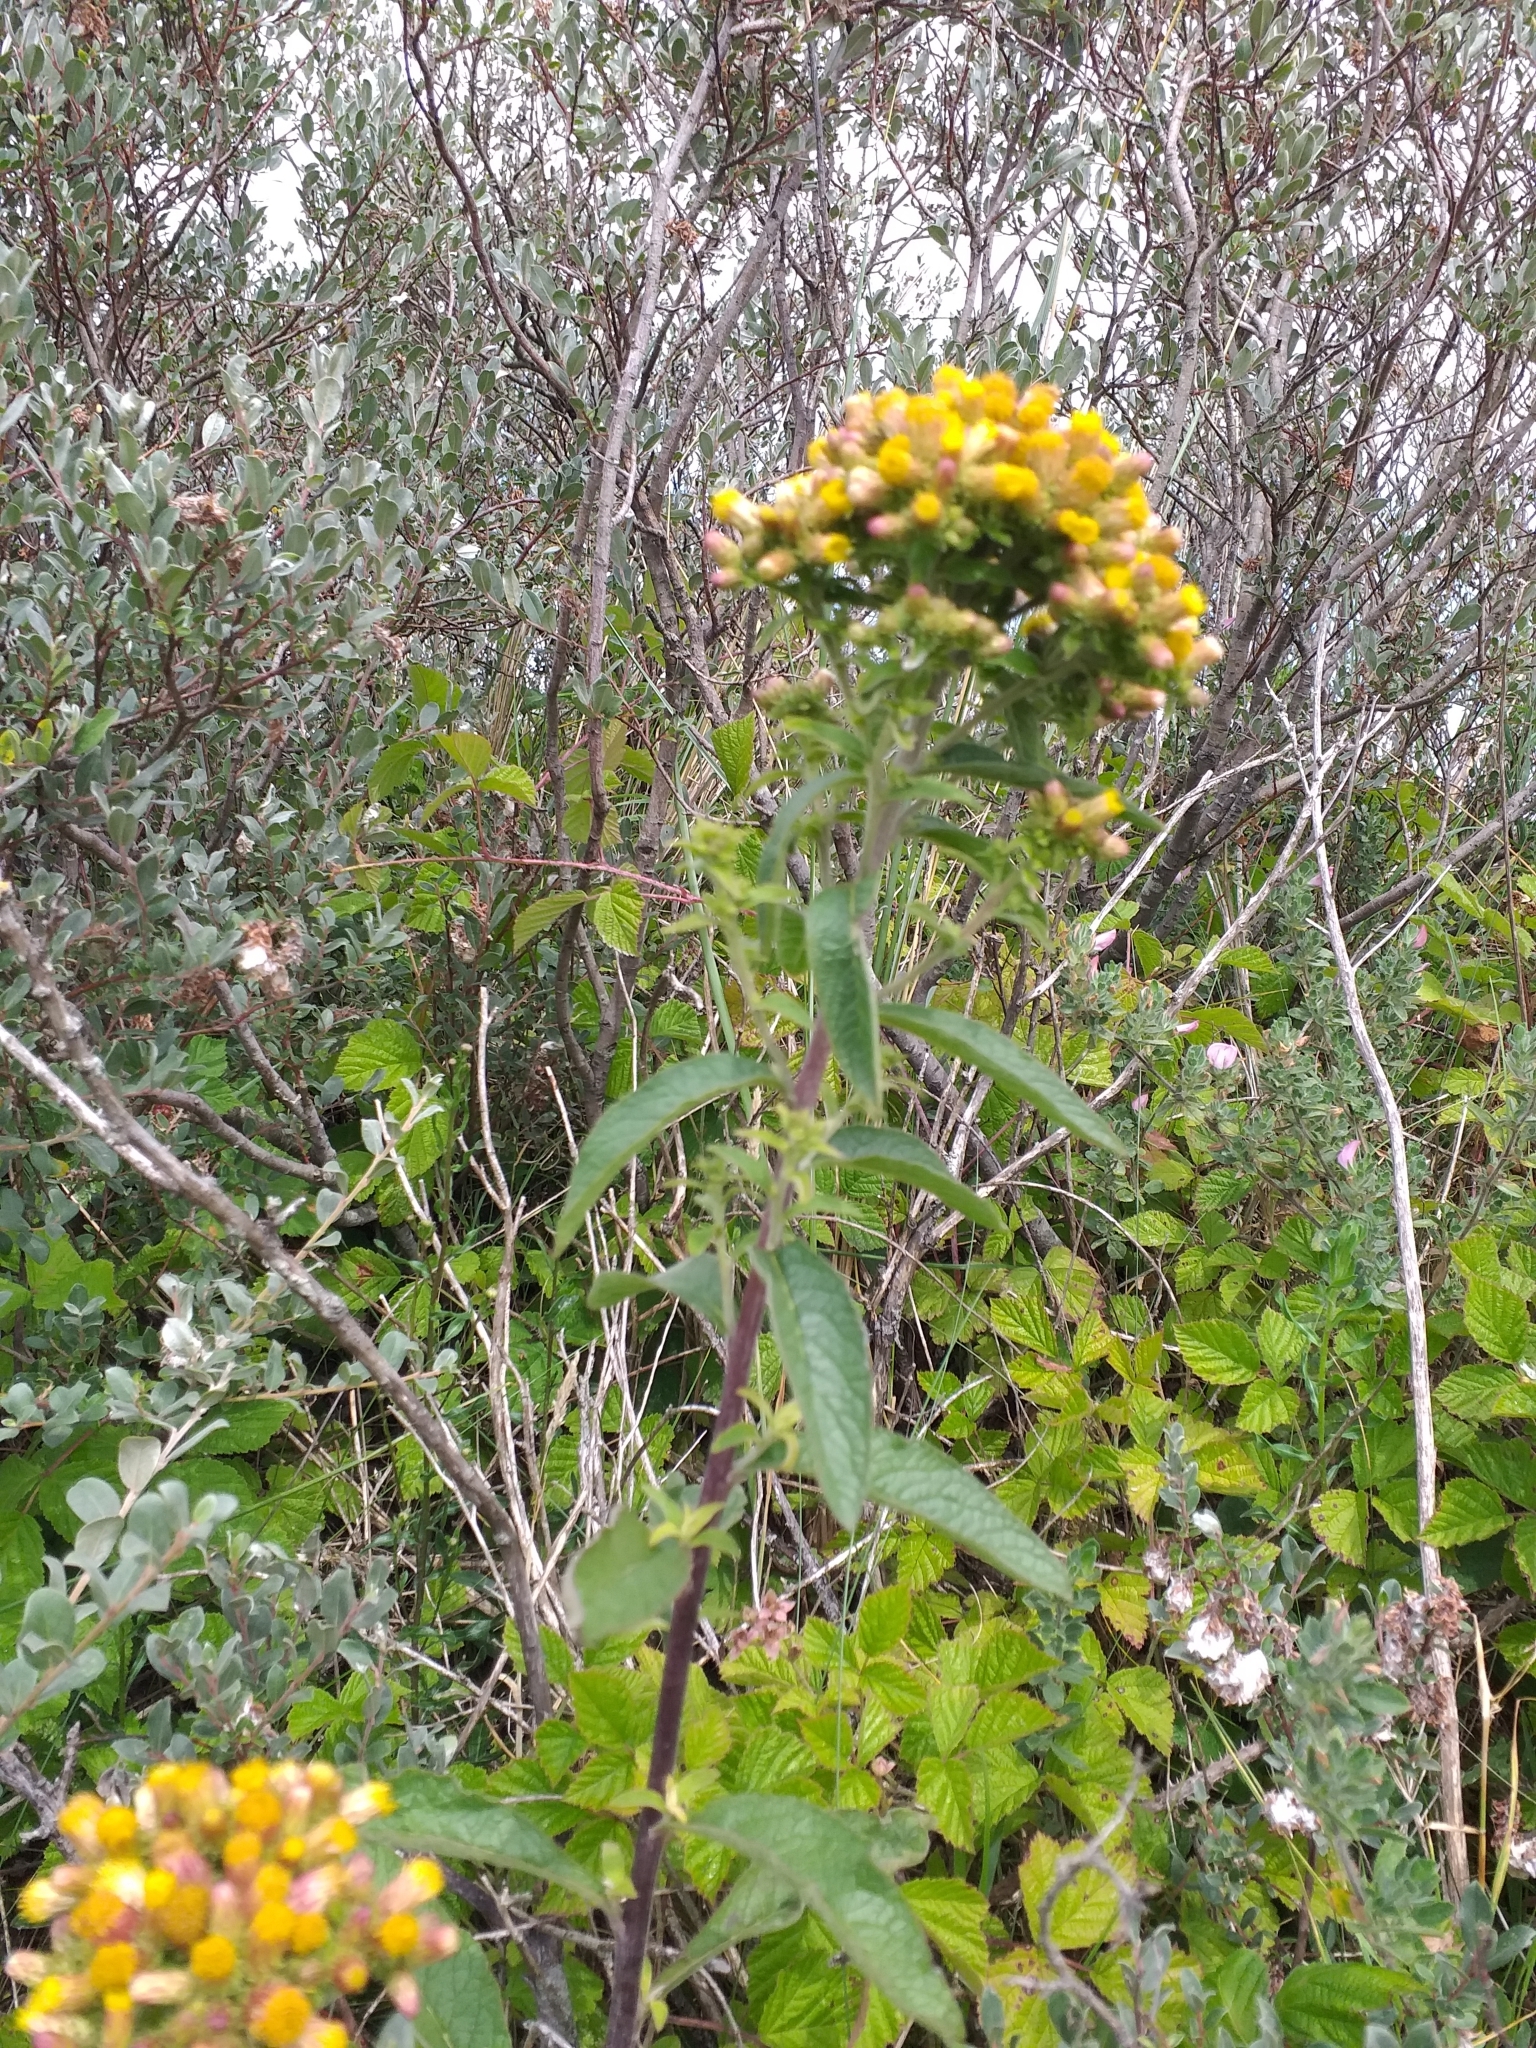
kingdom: Plantae
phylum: Tracheophyta
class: Magnoliopsida
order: Asterales
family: Asteraceae
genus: Pentanema
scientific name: Pentanema squarrosum
